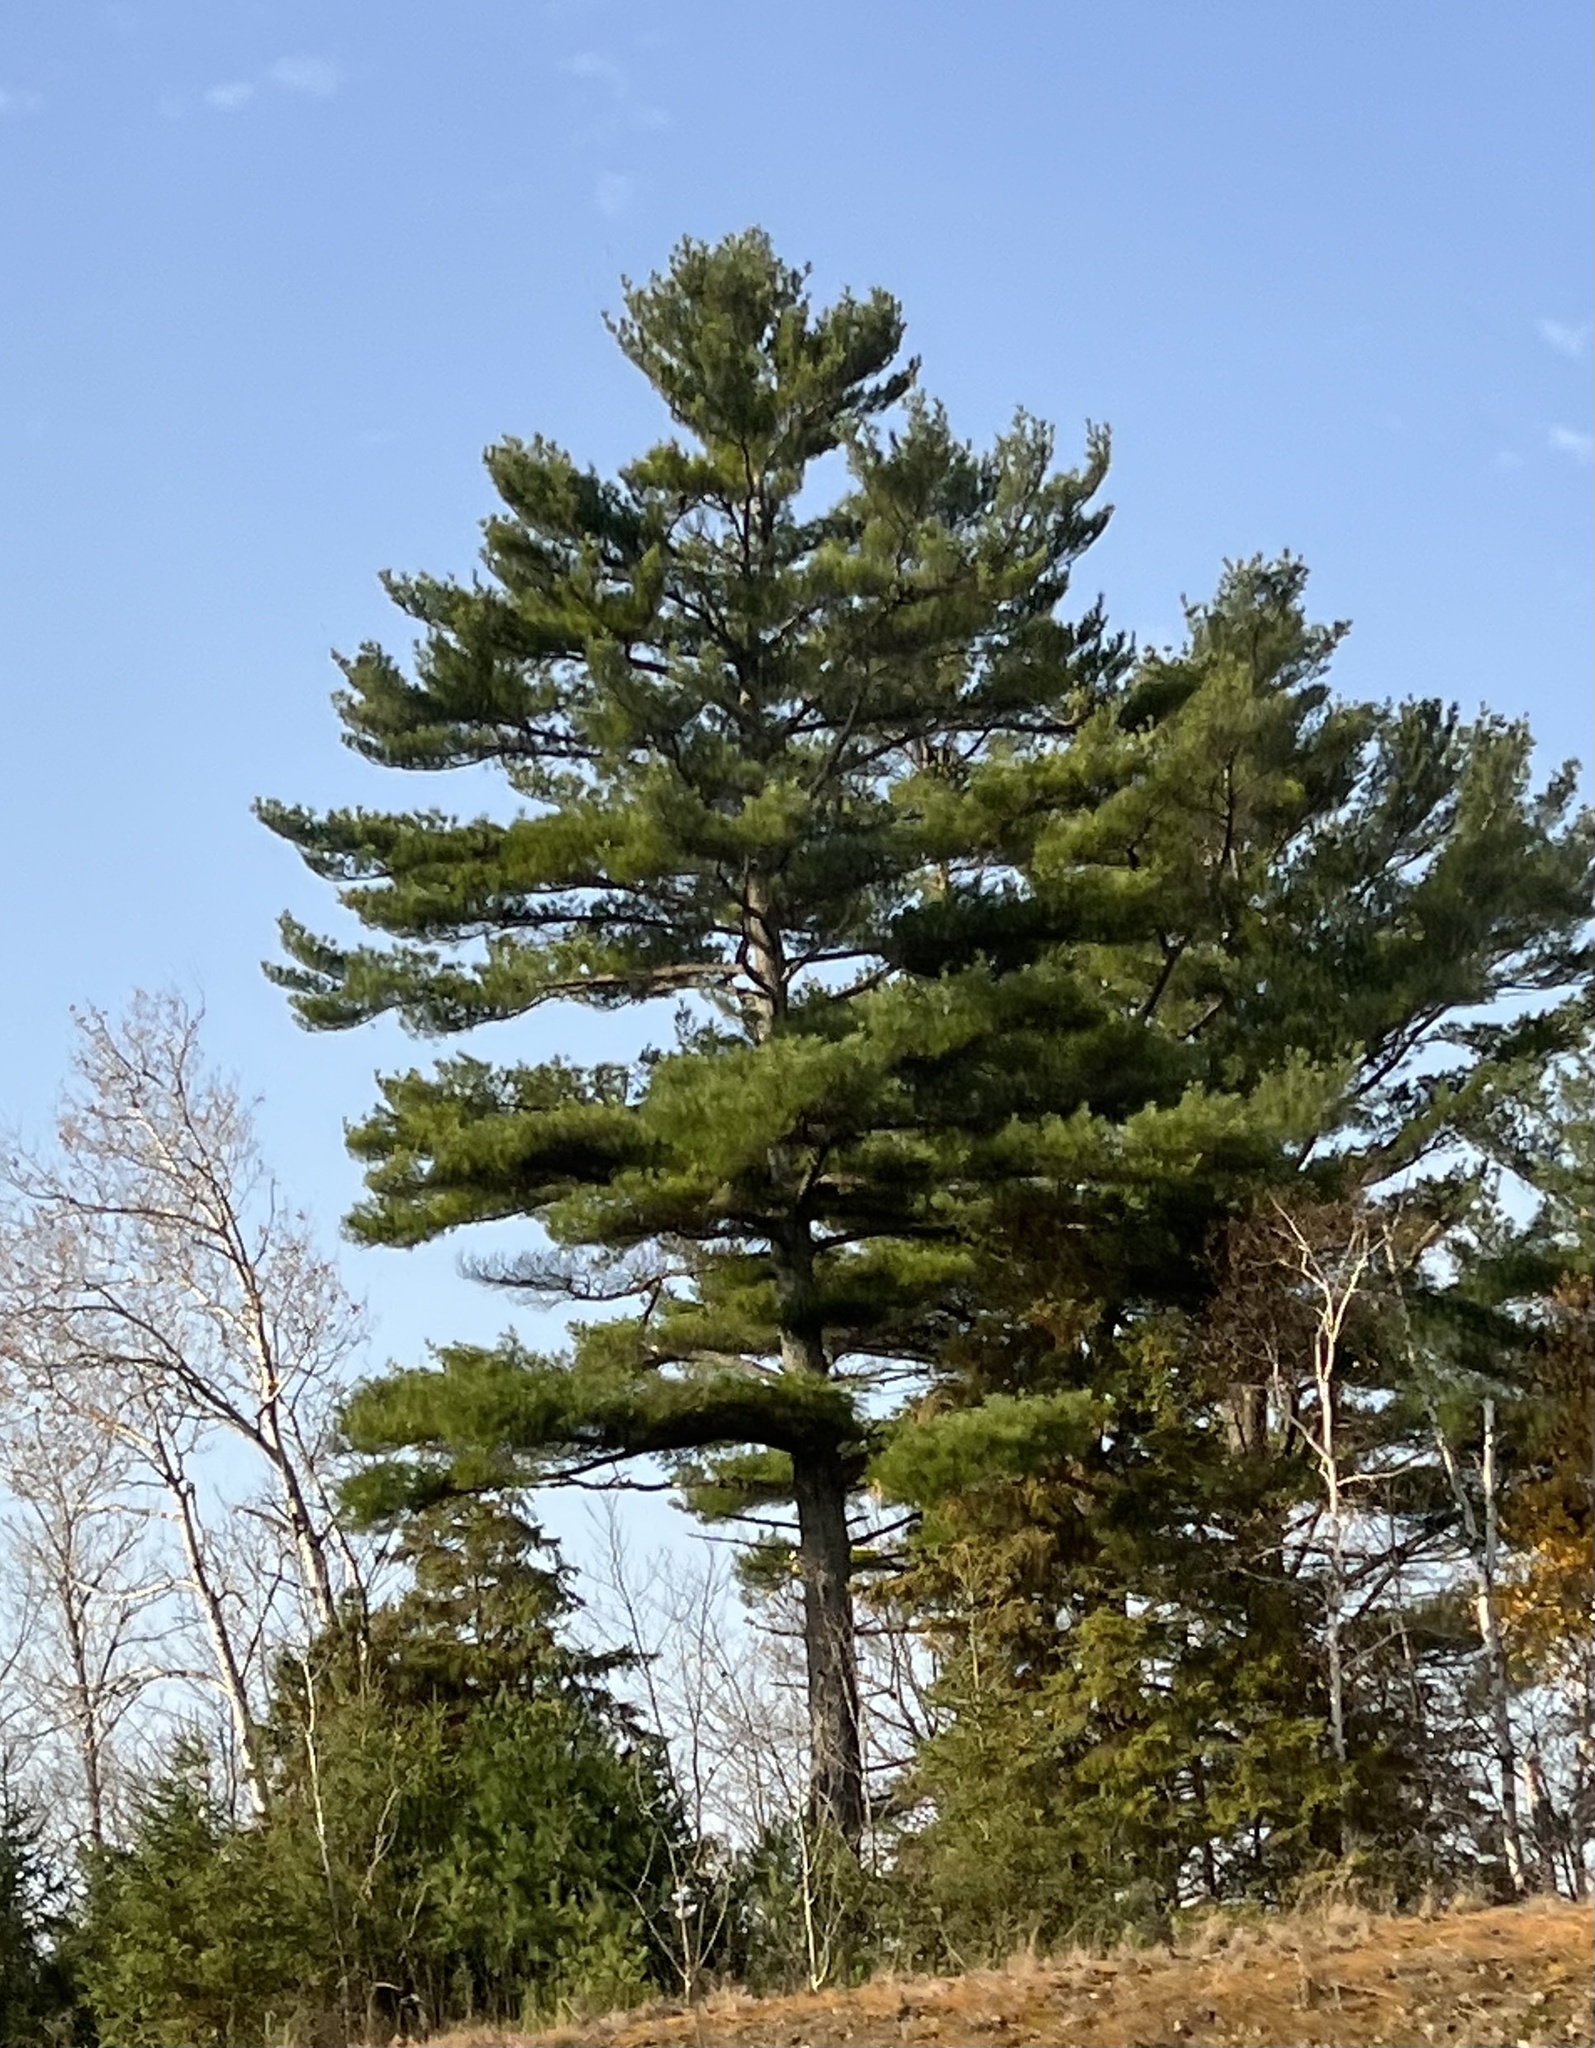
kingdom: Plantae
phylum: Tracheophyta
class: Pinopsida
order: Pinales
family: Pinaceae
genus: Pinus
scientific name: Pinus strobus
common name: Weymouth pine
